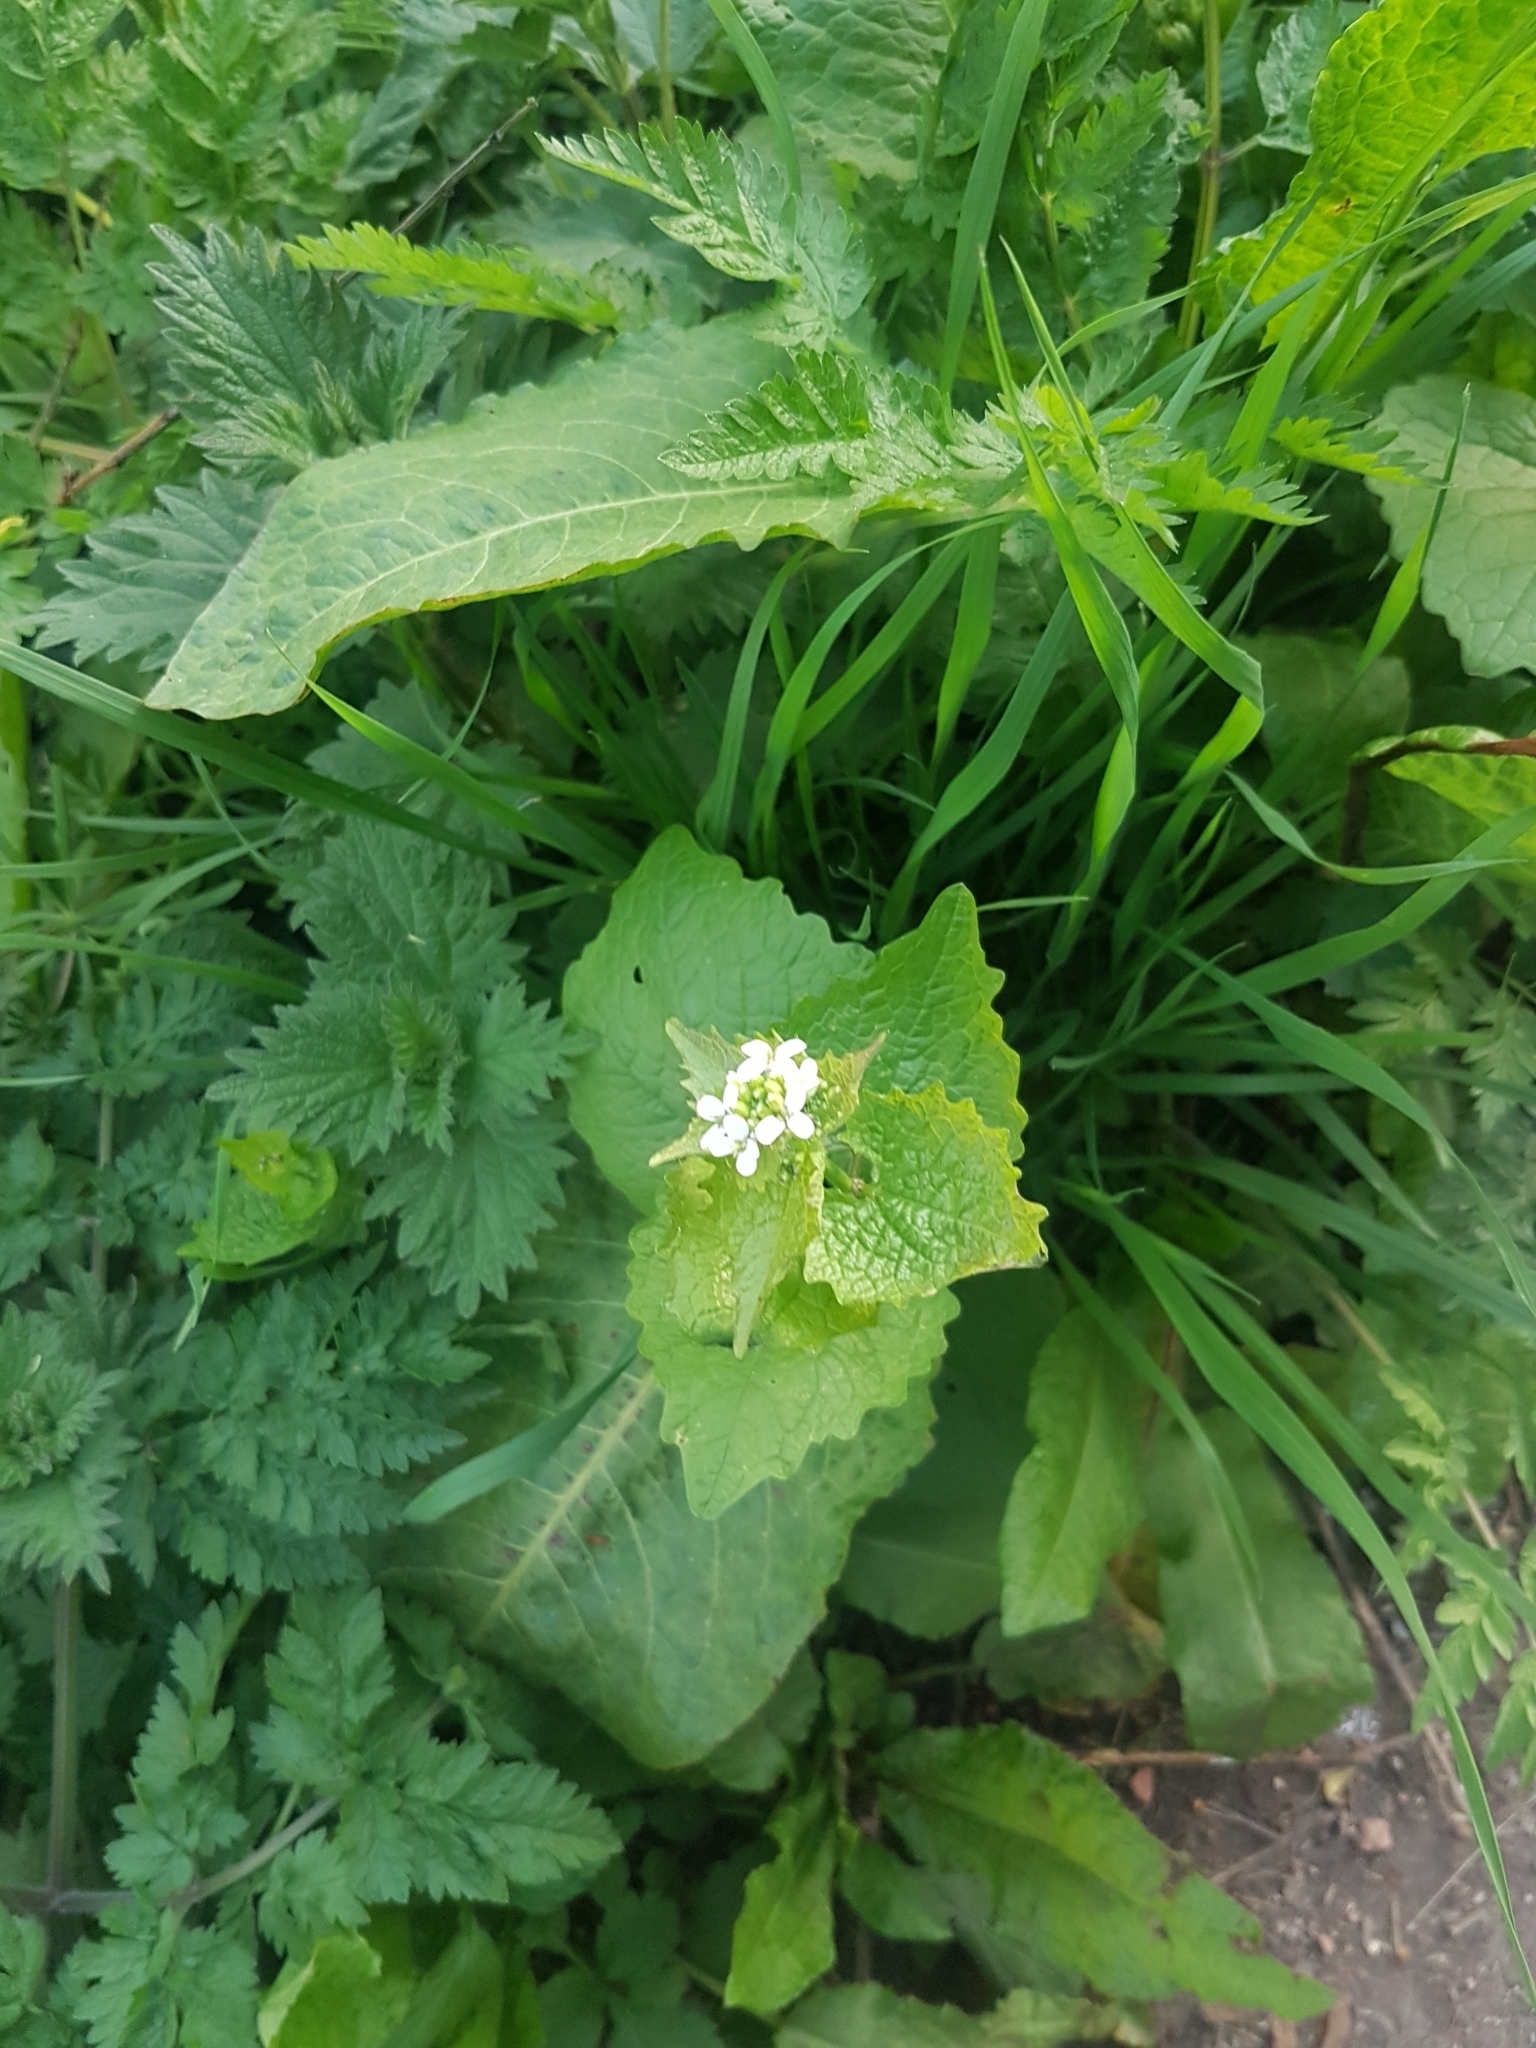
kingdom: Plantae
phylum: Tracheophyta
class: Magnoliopsida
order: Brassicales
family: Brassicaceae
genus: Alliaria
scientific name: Alliaria petiolata
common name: Garlic mustard
